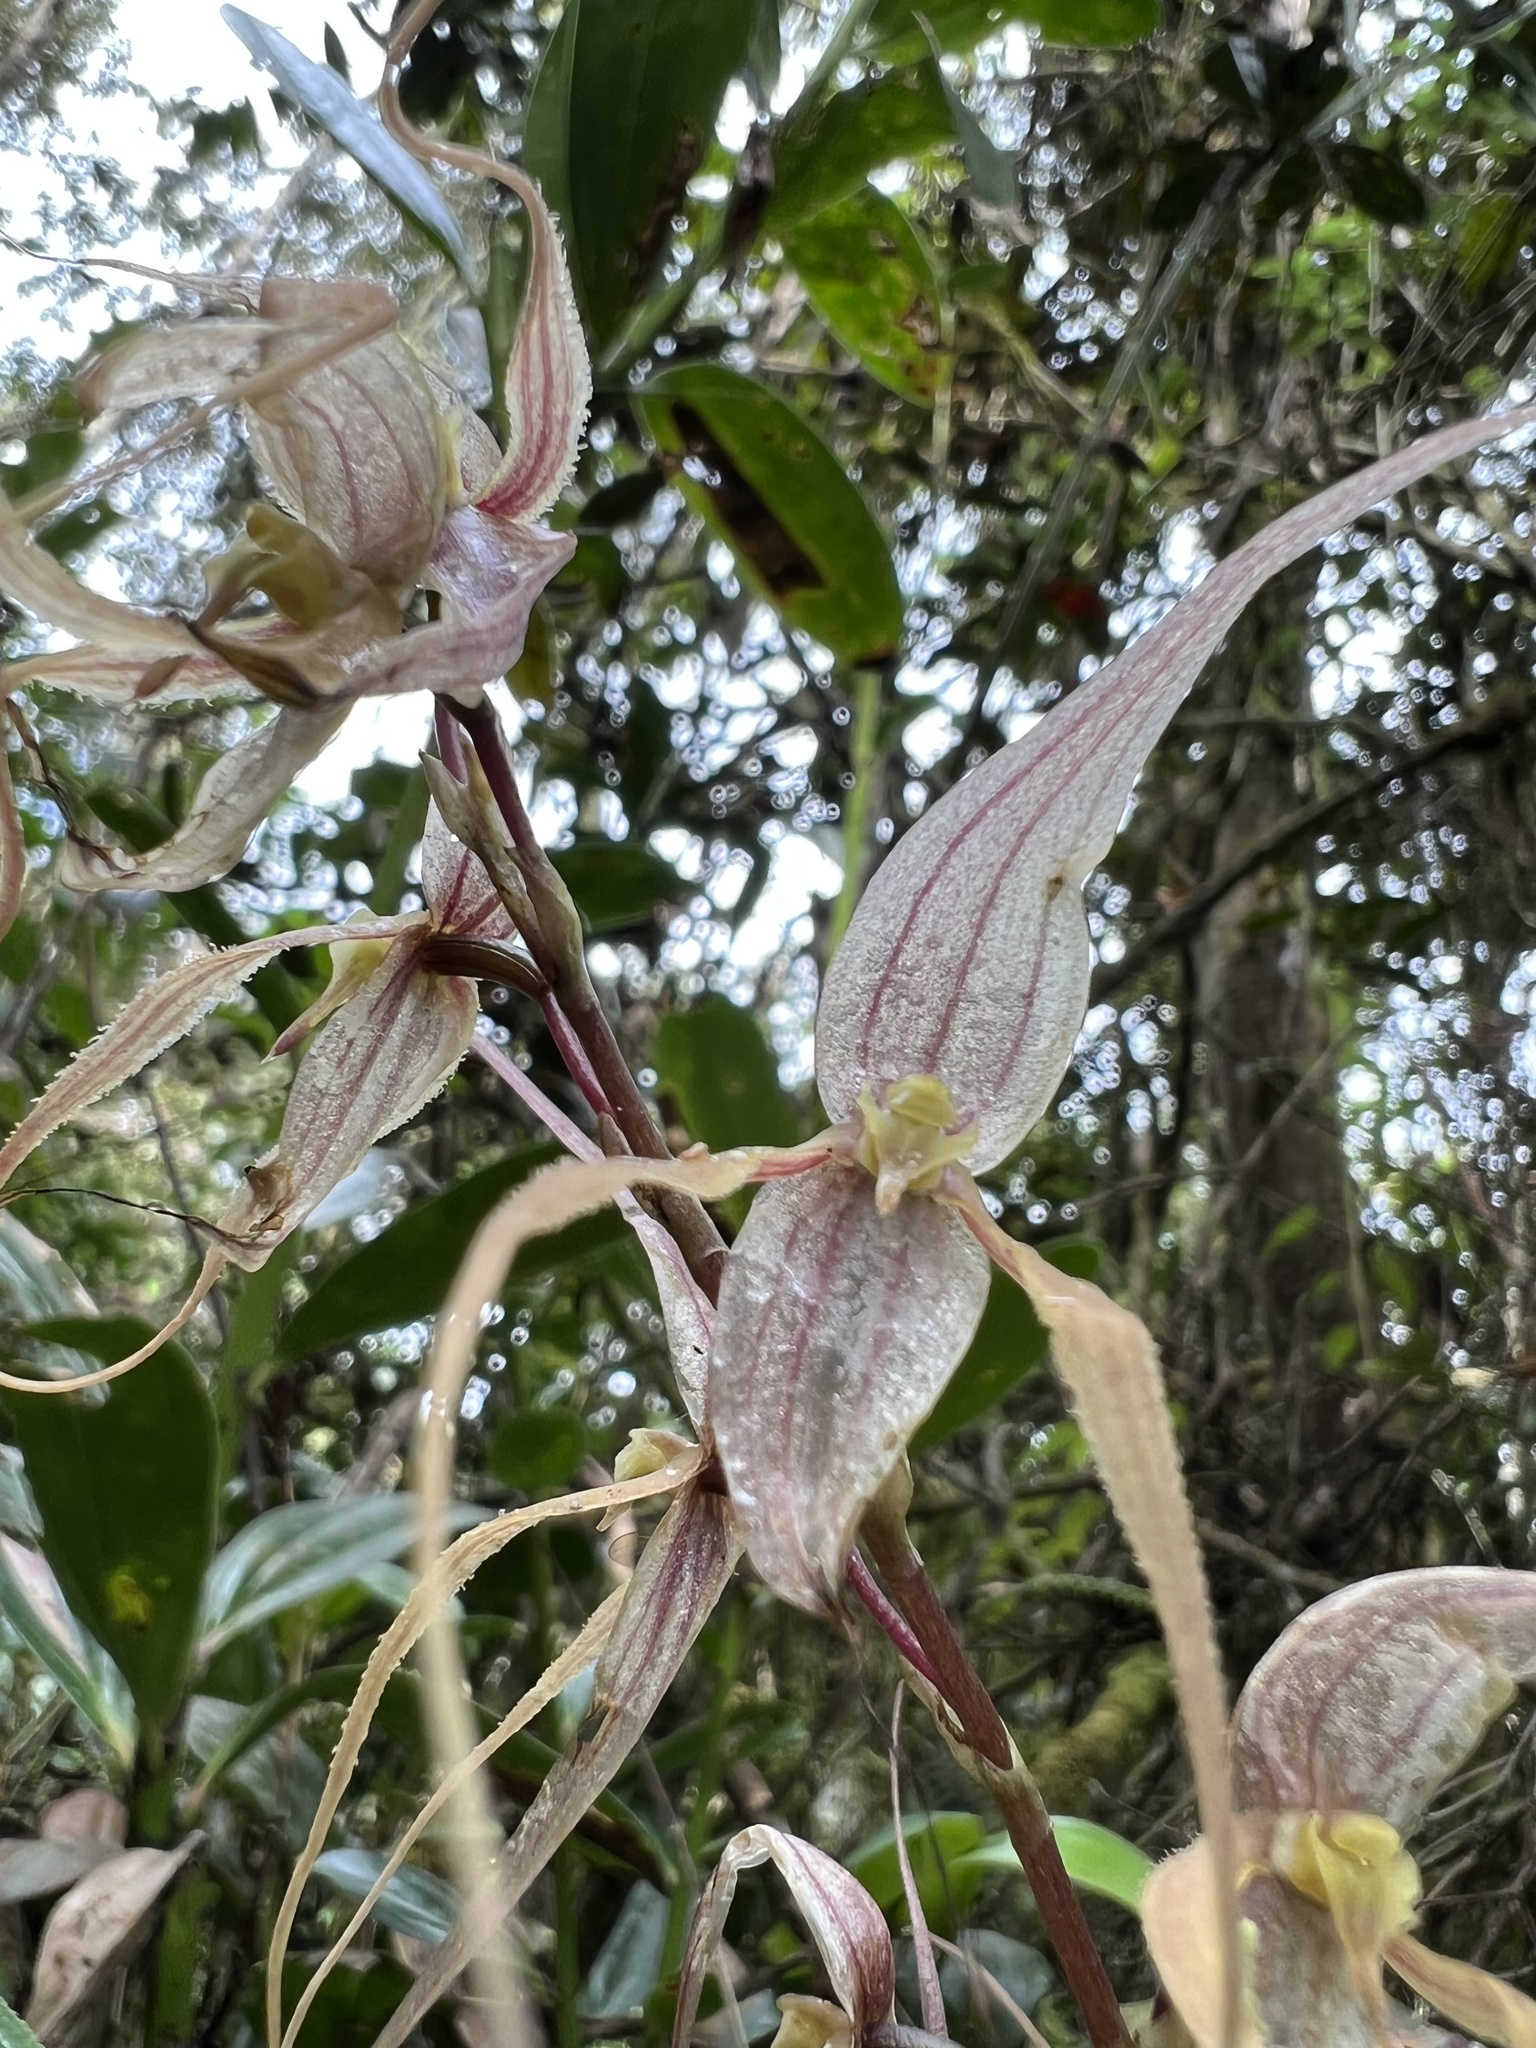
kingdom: Plantae
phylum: Tracheophyta
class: Liliopsida
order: Asparagales
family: Orchidaceae
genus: Pleurothallis
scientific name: Pleurothallis phalangifera
